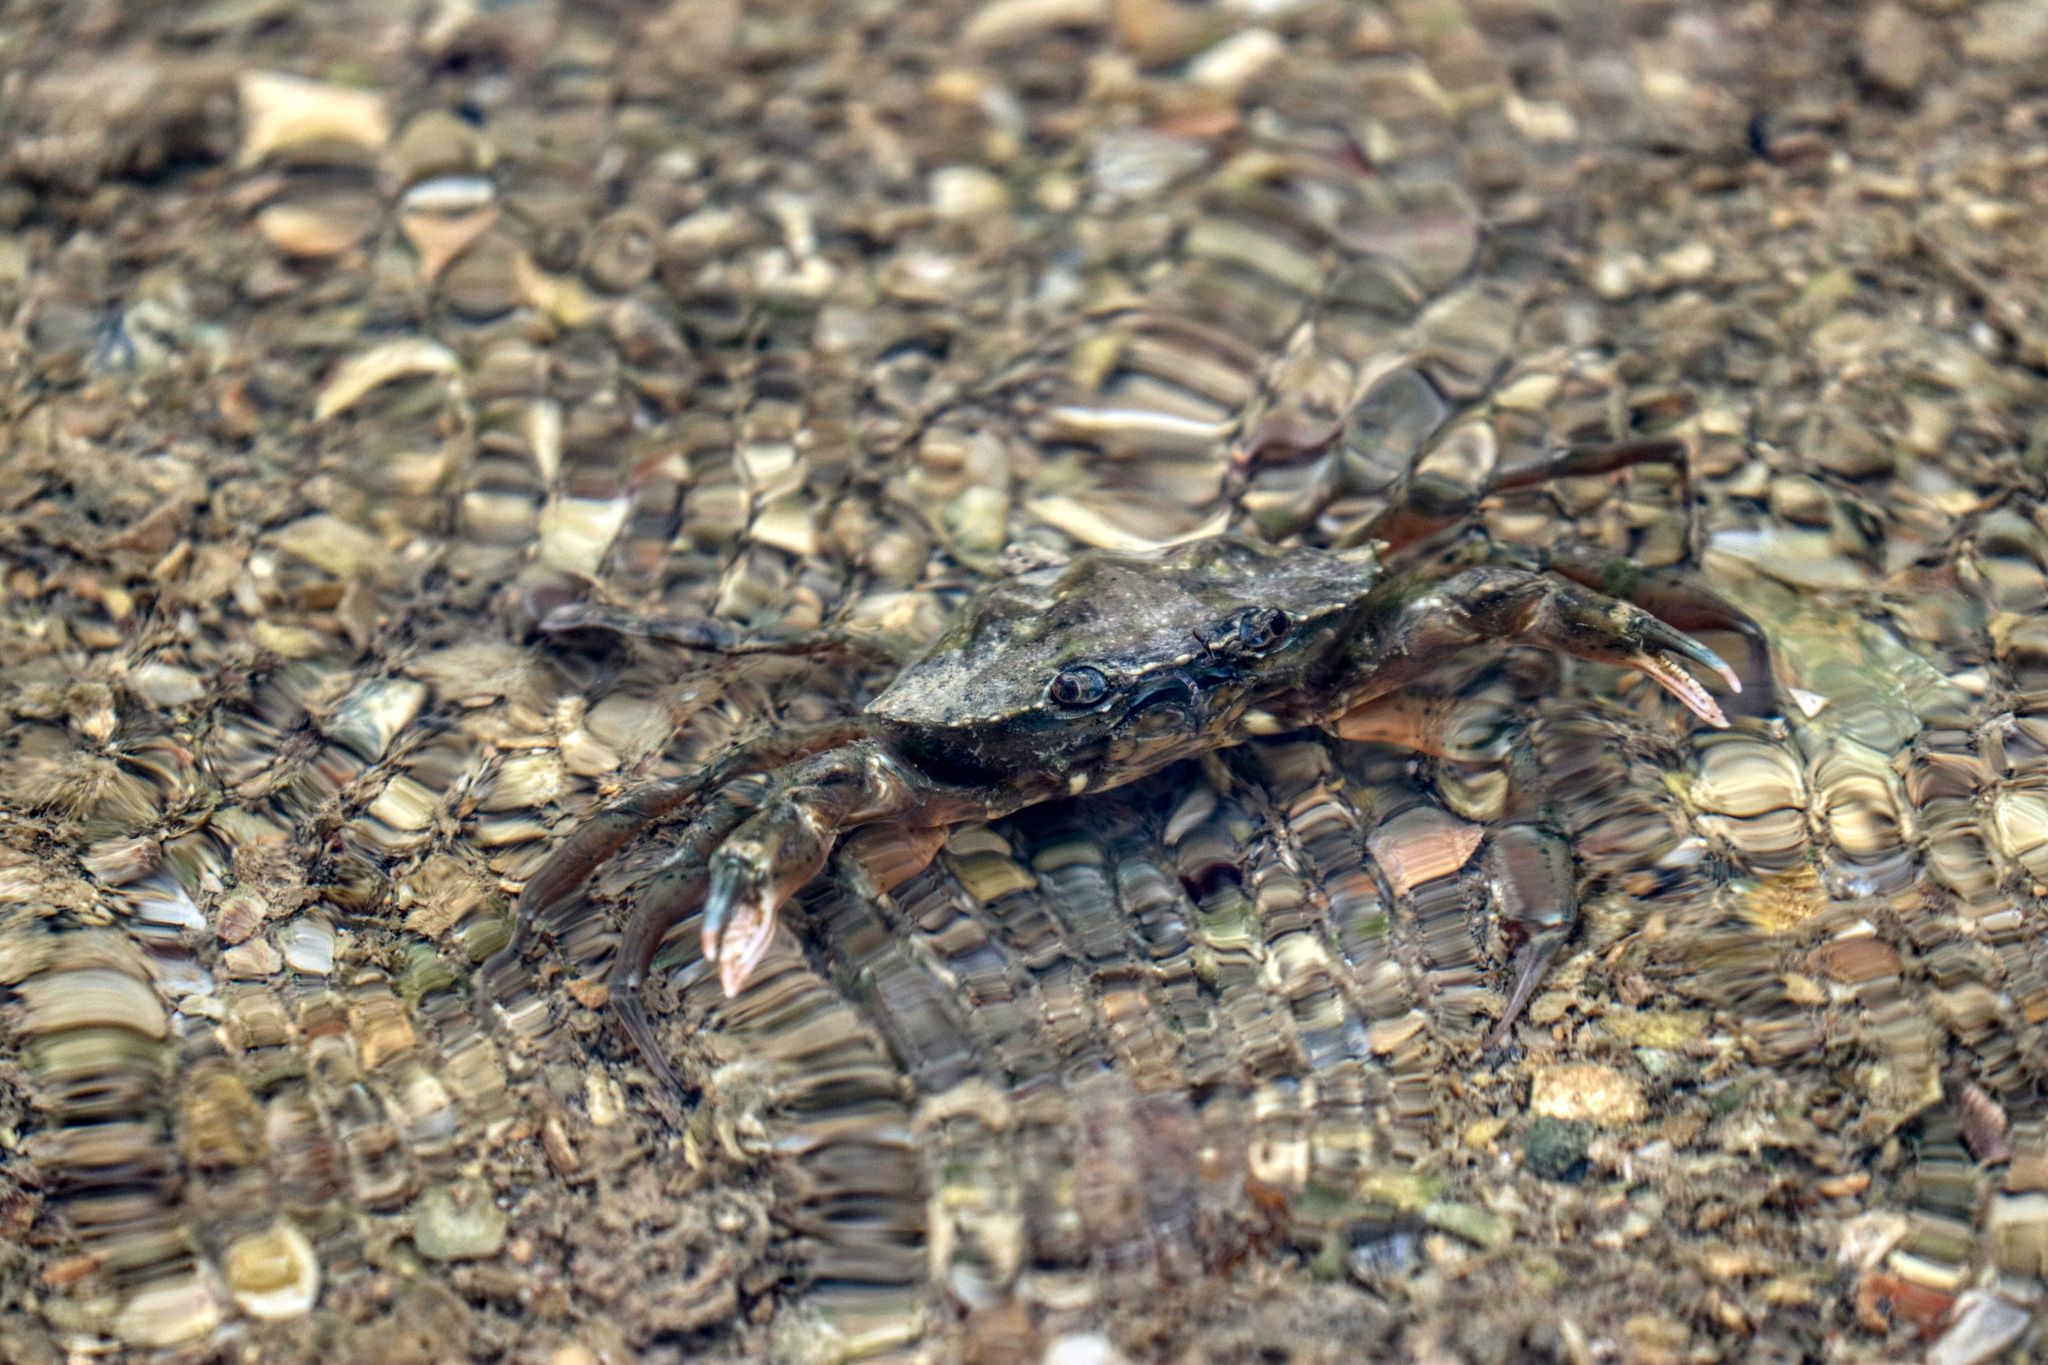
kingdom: Animalia
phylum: Arthropoda
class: Malacostraca
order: Decapoda
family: Carcinidae
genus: Carcinus
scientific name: Carcinus aestuarii
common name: Mediterranean green crab
